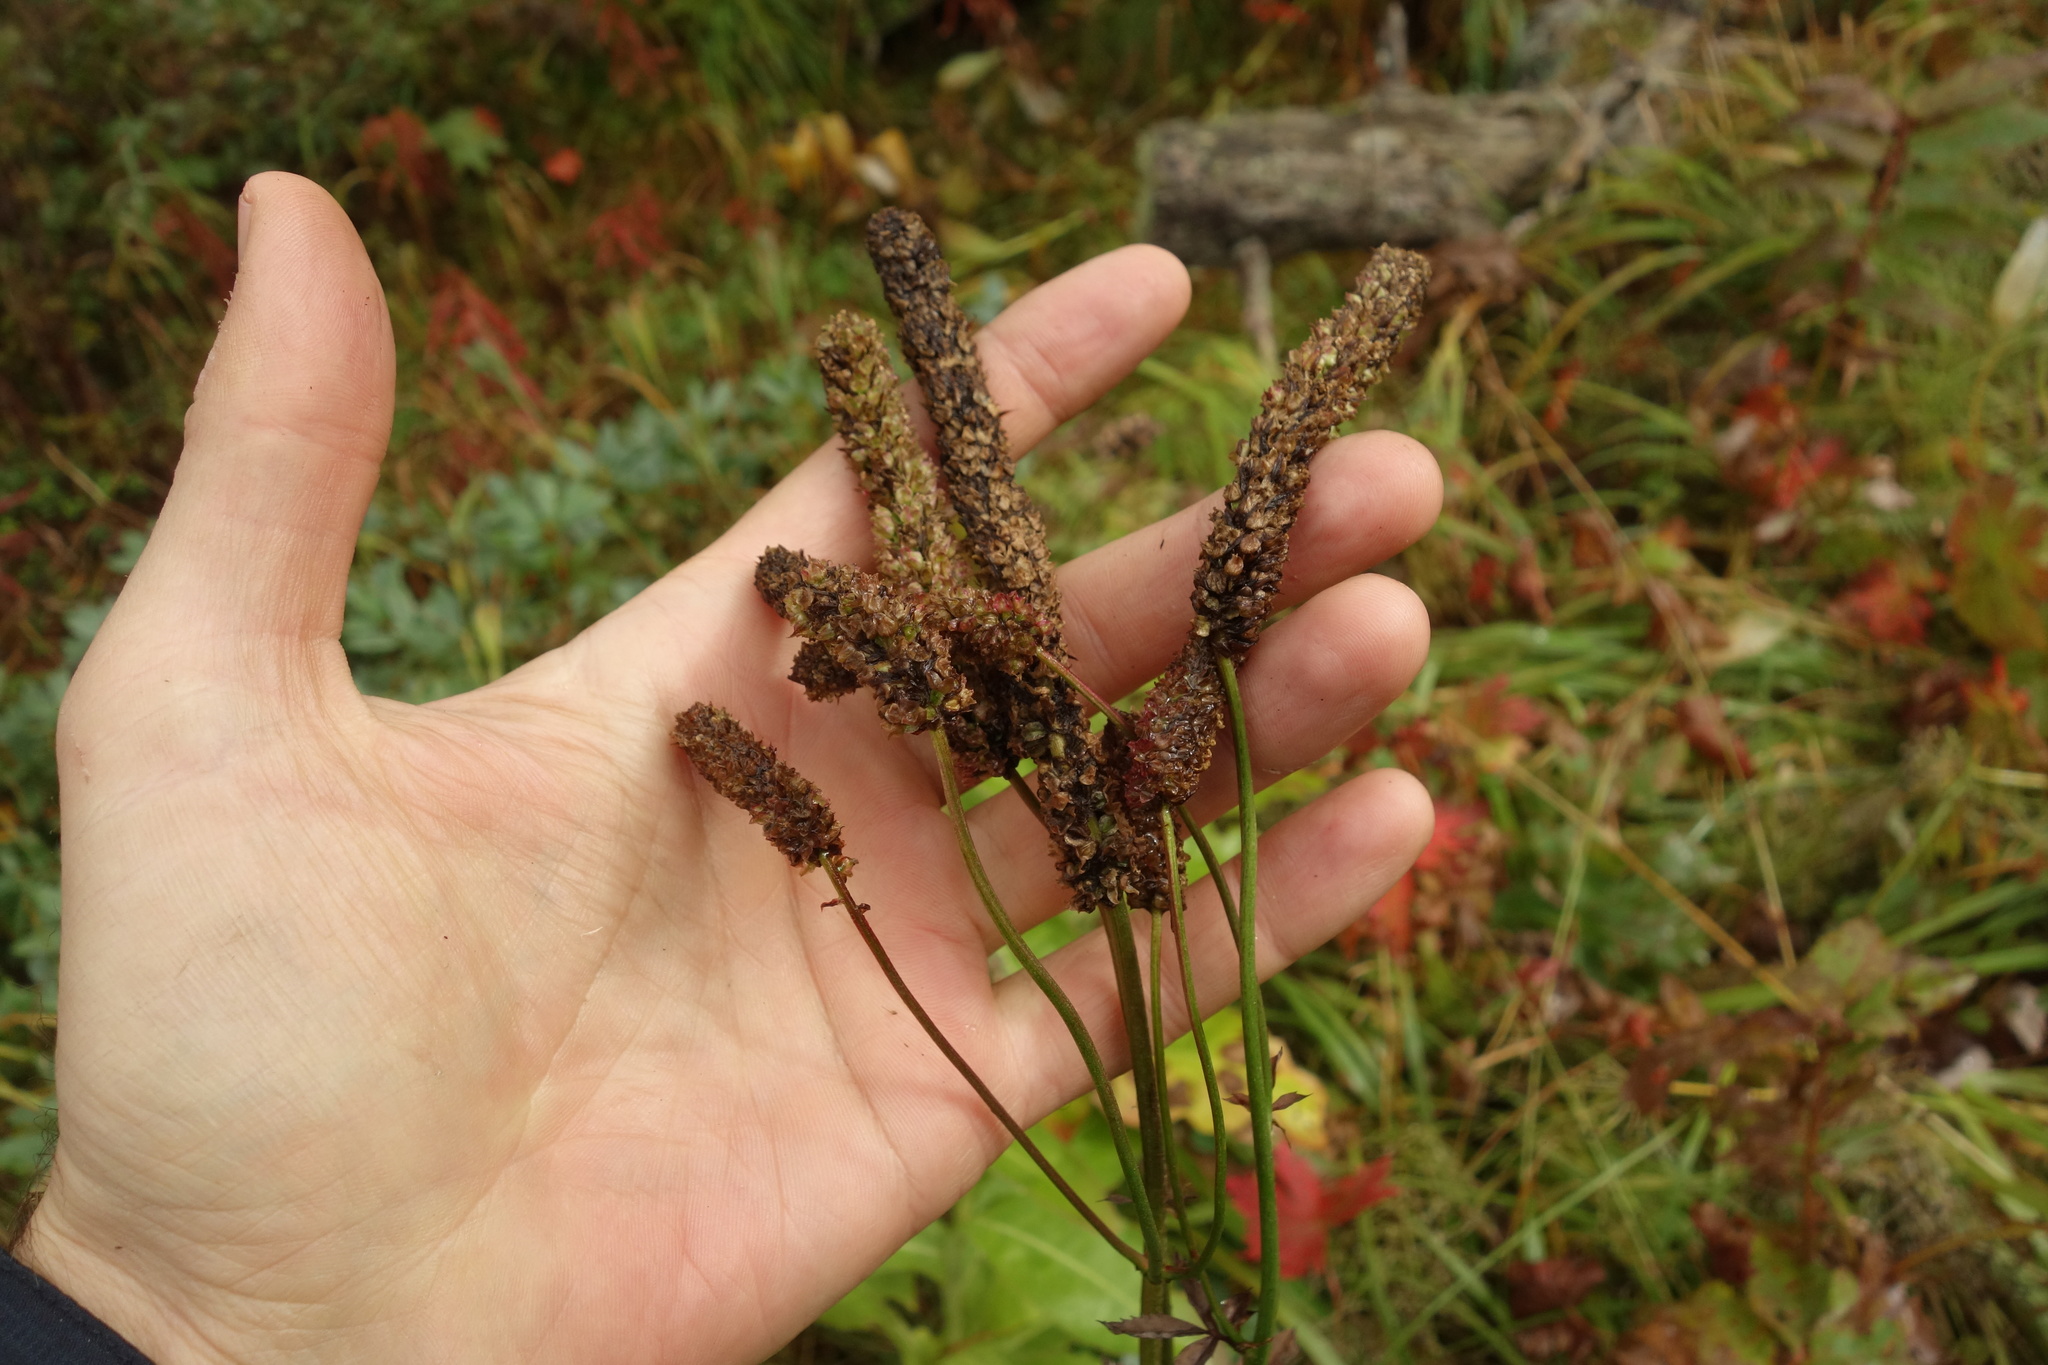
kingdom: Plantae
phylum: Tracheophyta
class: Magnoliopsida
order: Rosales
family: Rosaceae
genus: Sanguisorba
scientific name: Sanguisorba alpina
